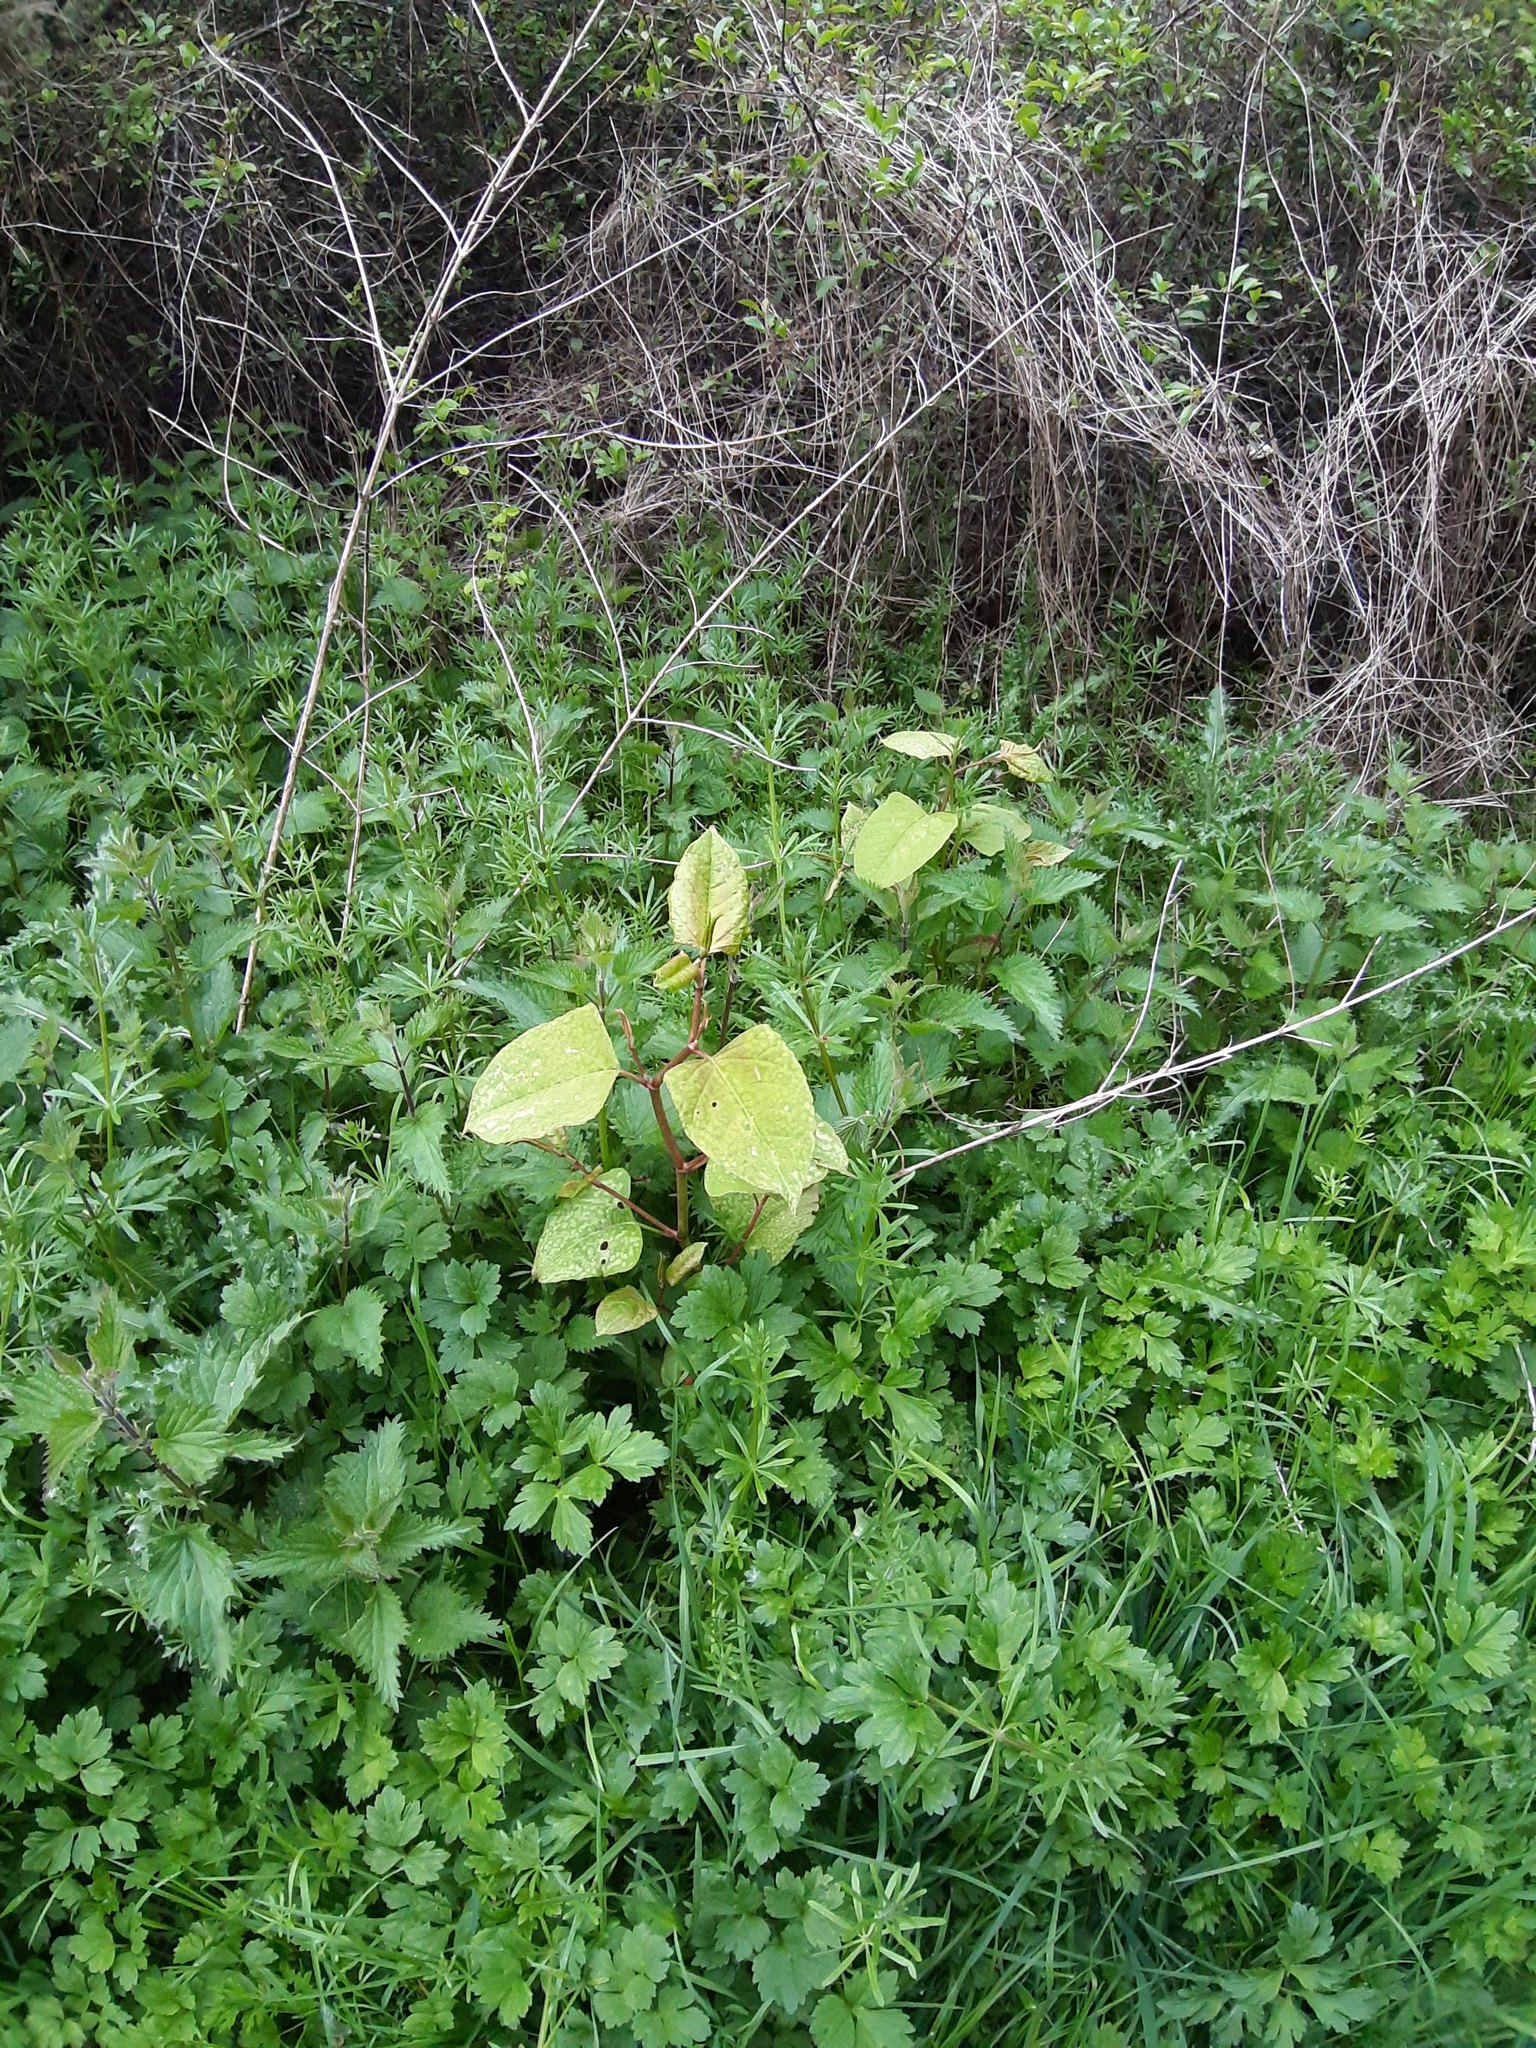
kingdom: Plantae
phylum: Tracheophyta
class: Magnoliopsida
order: Caryophyllales
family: Polygonaceae
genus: Reynoutria
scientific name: Reynoutria japonica
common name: Japanese knotweed
